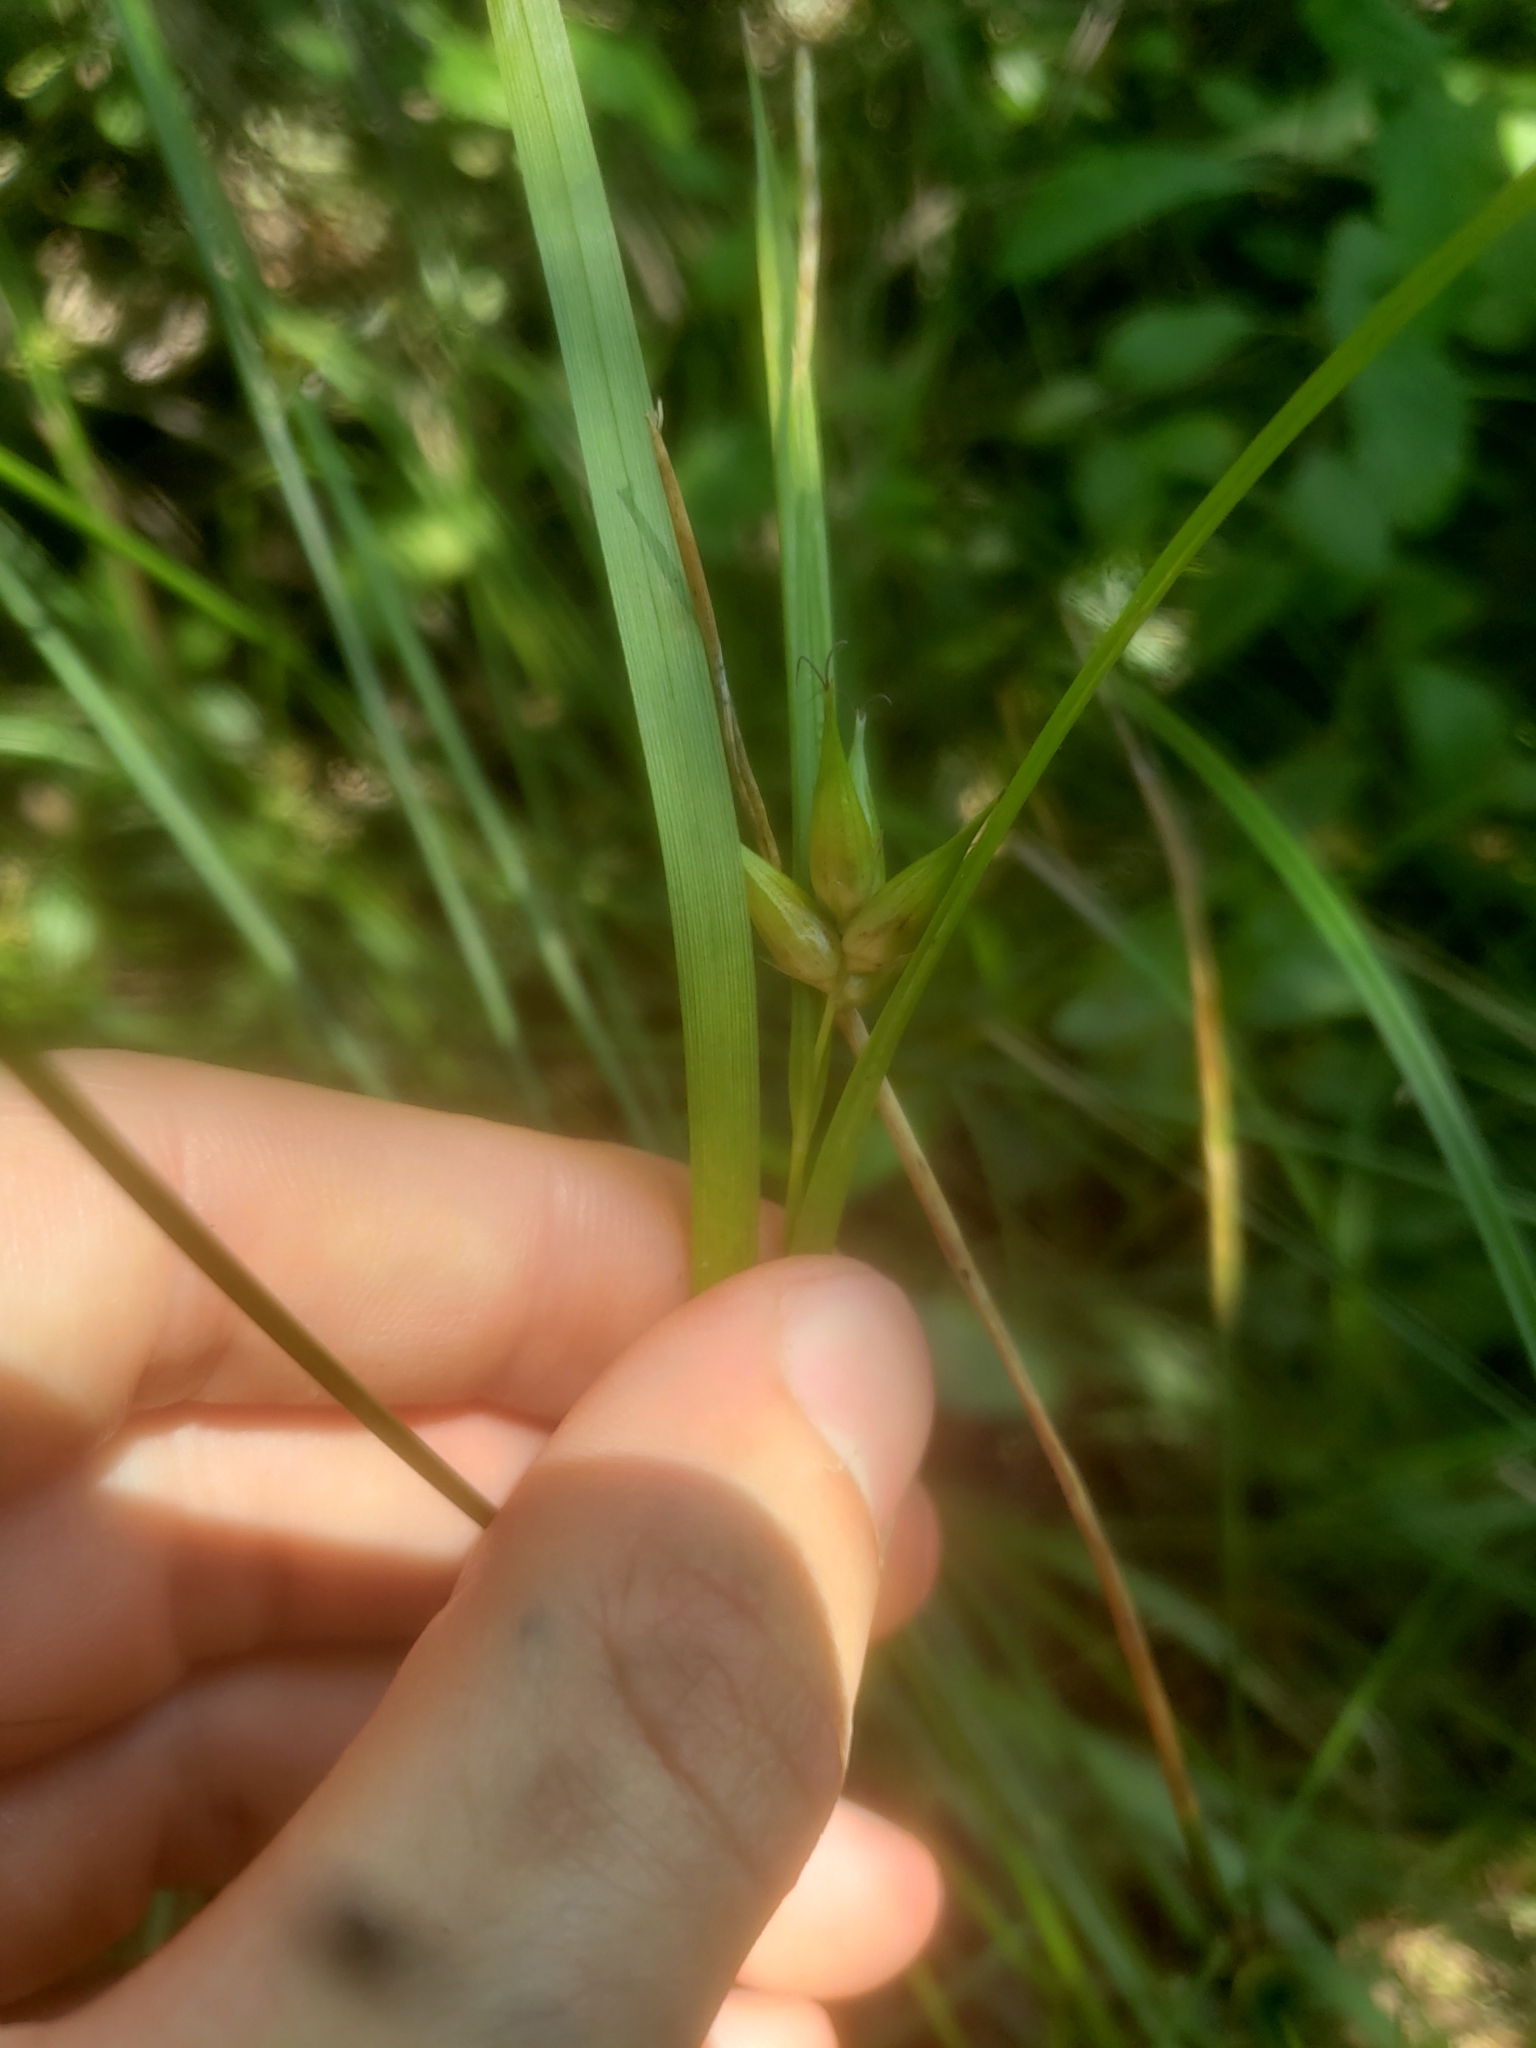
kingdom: Plantae
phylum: Tracheophyta
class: Liliopsida
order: Poales
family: Cyperaceae
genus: Carex
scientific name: Carex intumescens
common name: Greater bladder sedge
